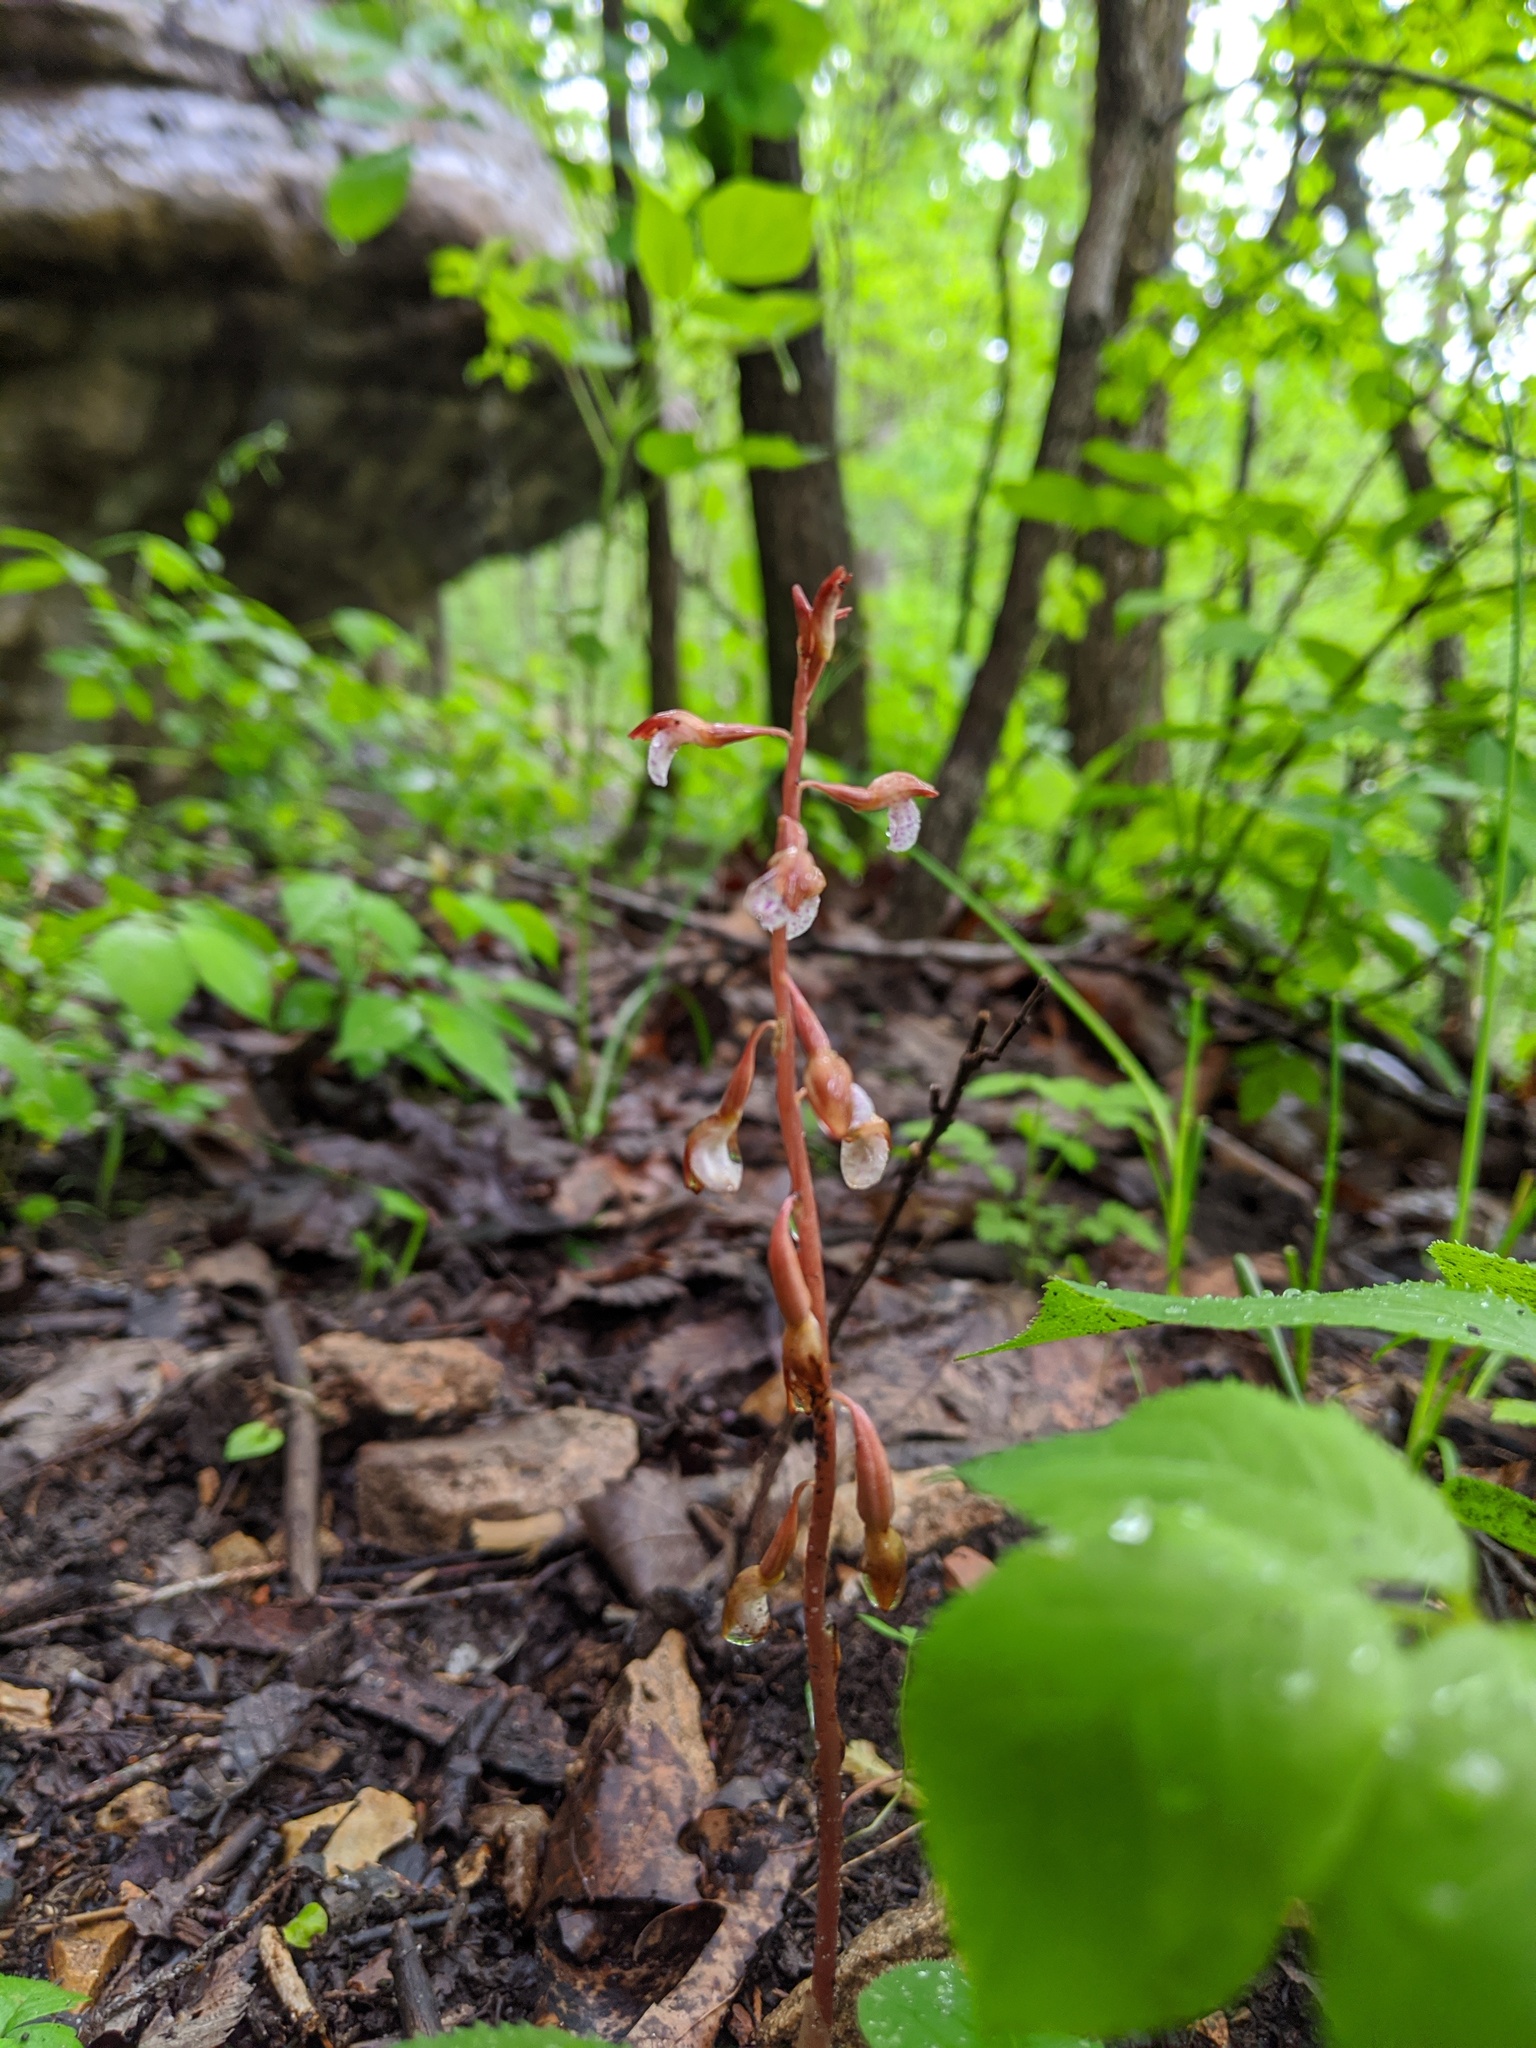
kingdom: Plantae
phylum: Tracheophyta
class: Liliopsida
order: Asparagales
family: Orchidaceae
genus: Corallorhiza
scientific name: Corallorhiza wisteriana
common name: Spring coralroot
